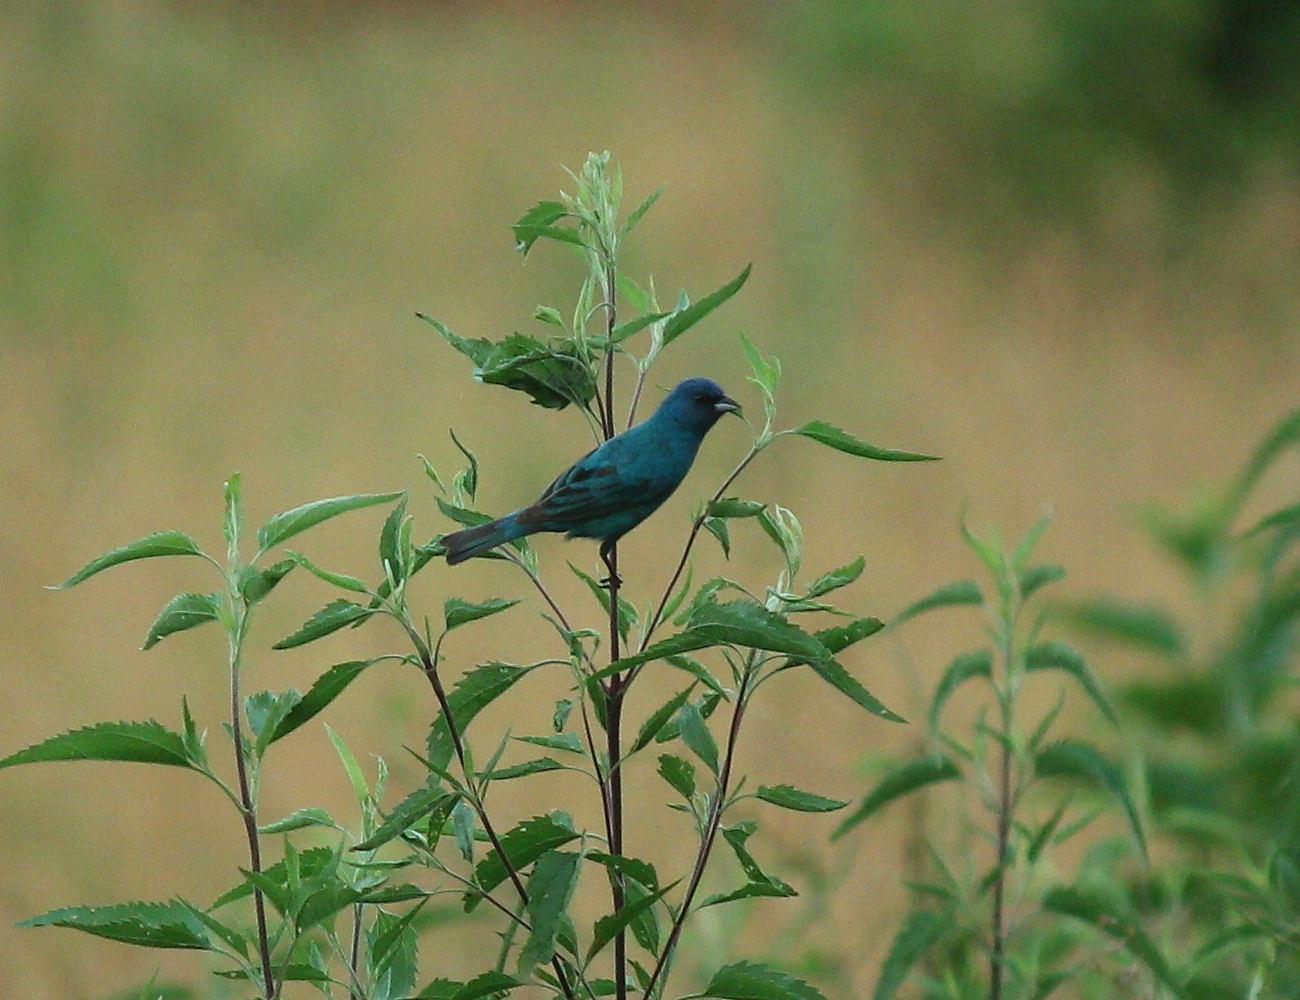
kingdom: Animalia
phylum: Chordata
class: Aves
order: Passeriformes
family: Cardinalidae
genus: Passerina
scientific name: Passerina cyanea
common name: Indigo bunting
